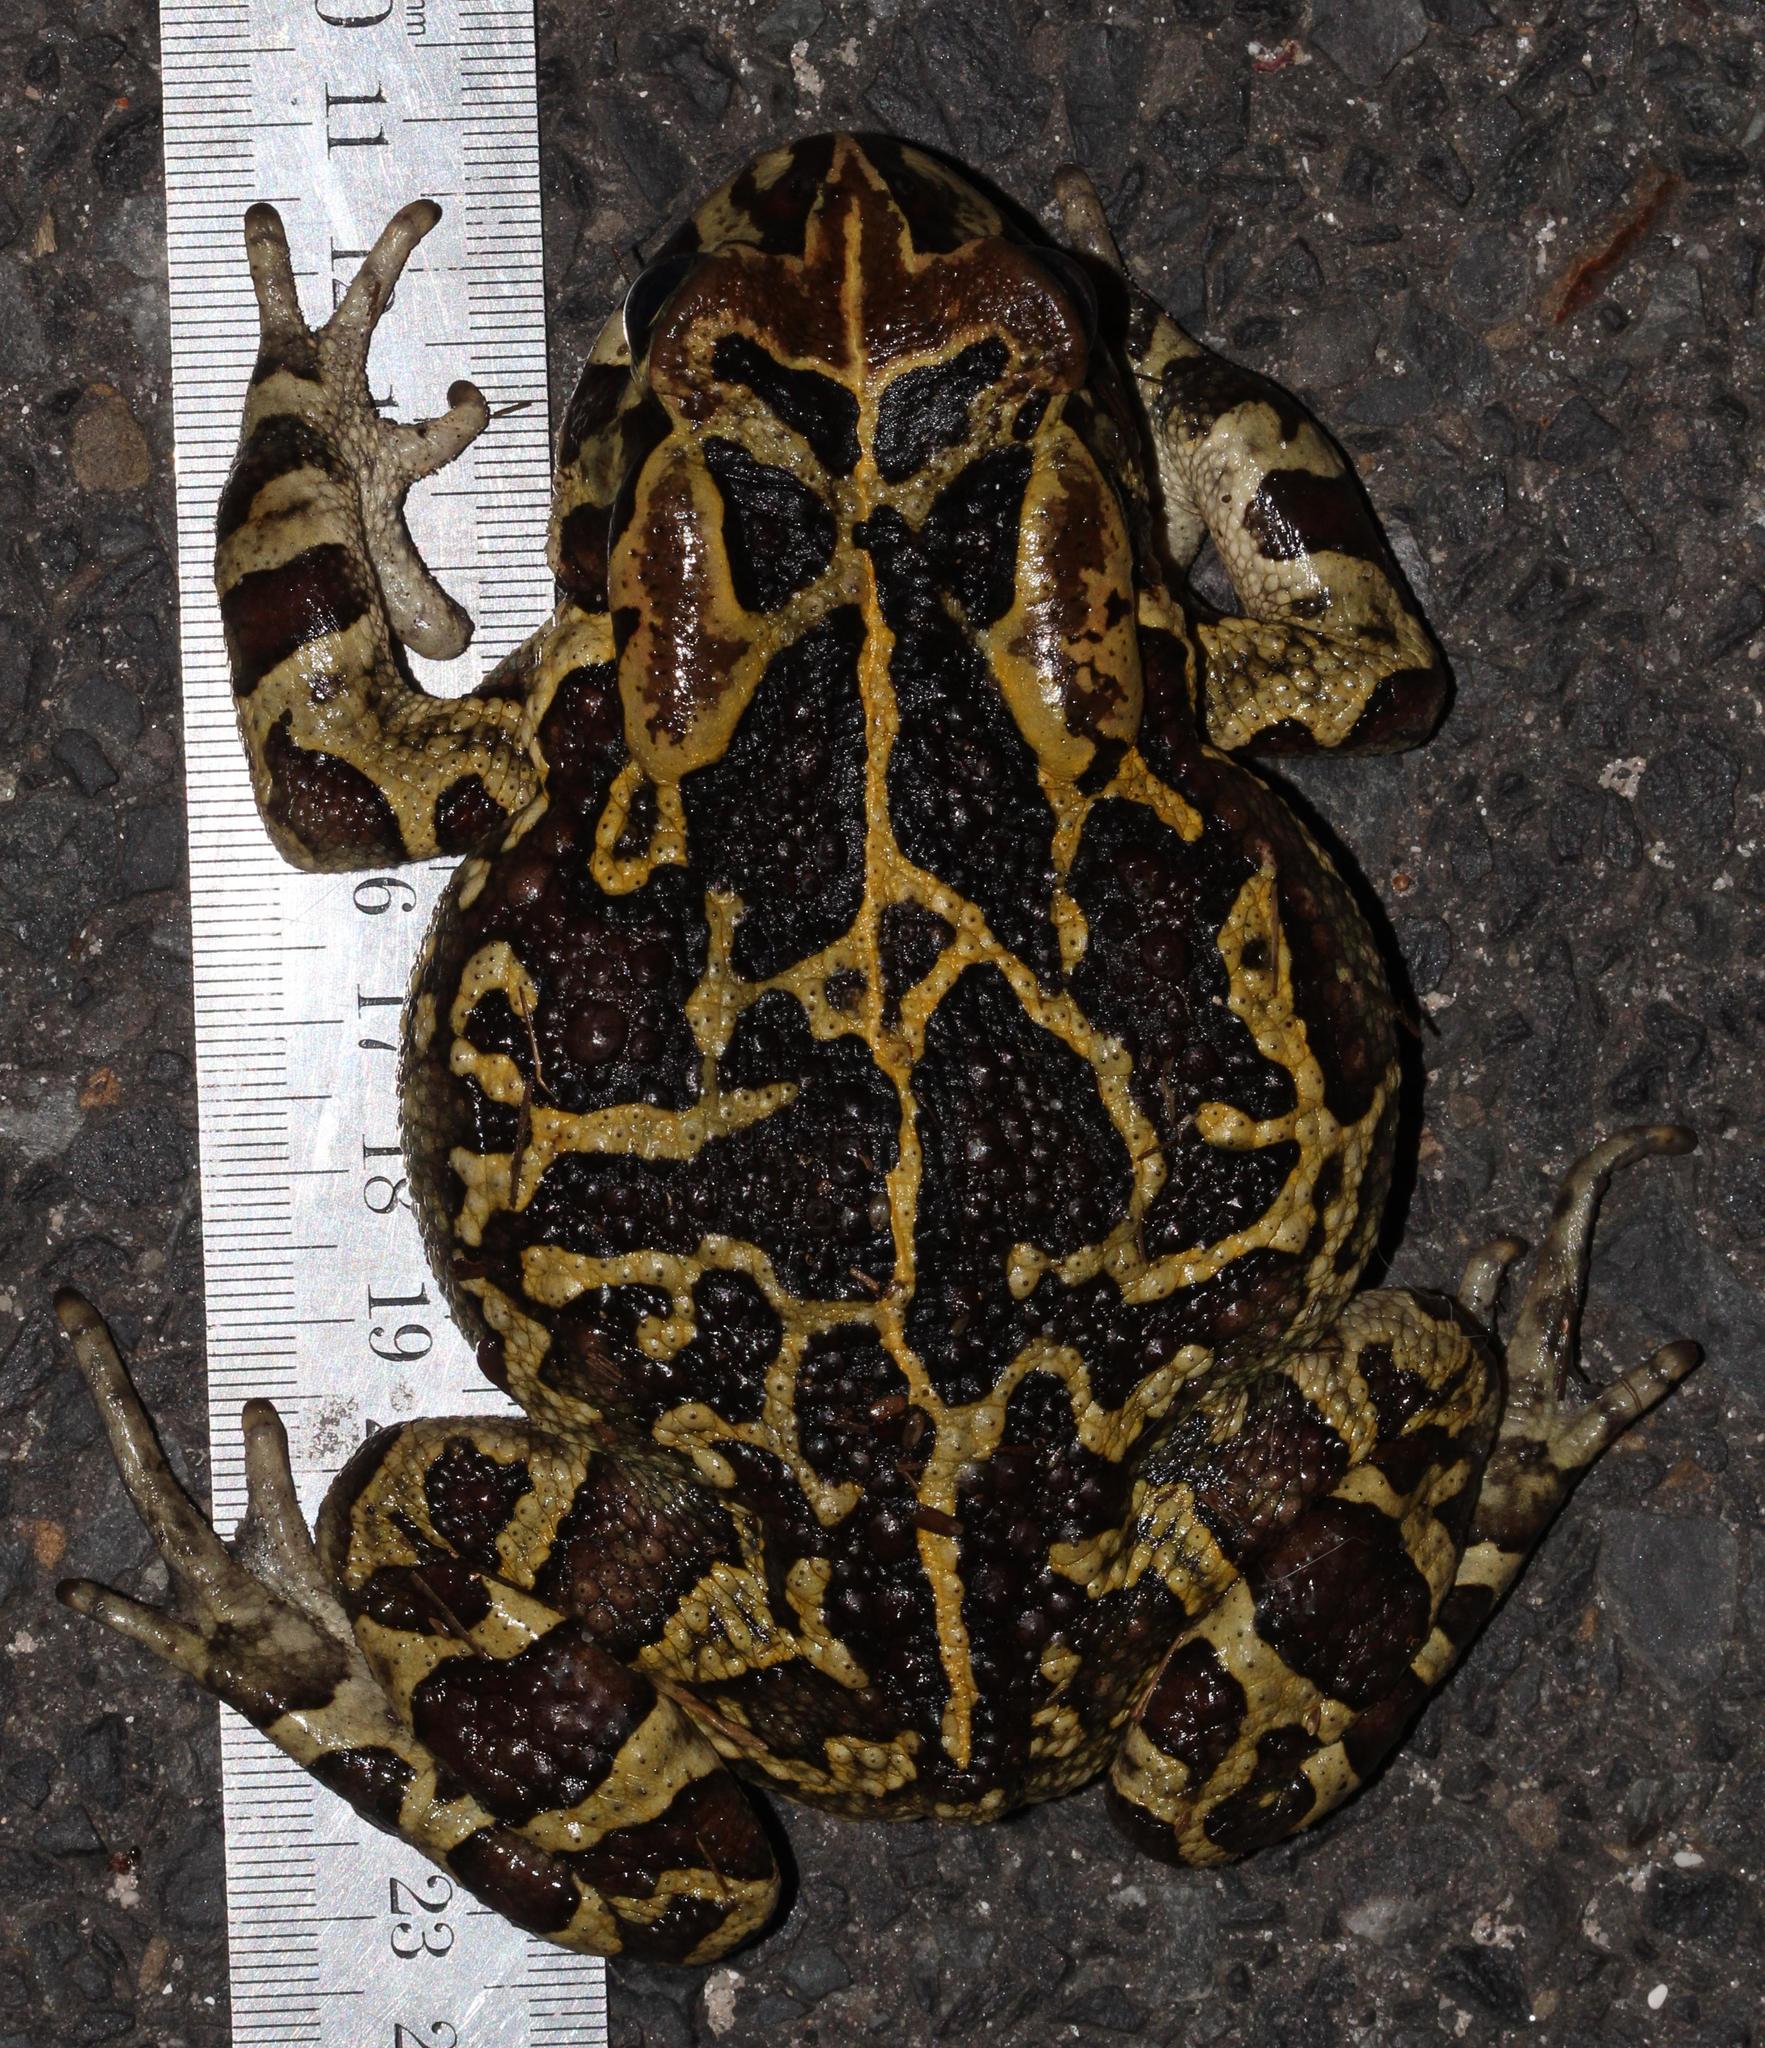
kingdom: Animalia
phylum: Chordata
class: Amphibia
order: Anura
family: Bufonidae
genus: Sclerophrys
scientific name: Sclerophrys pantherina
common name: Panther toad
